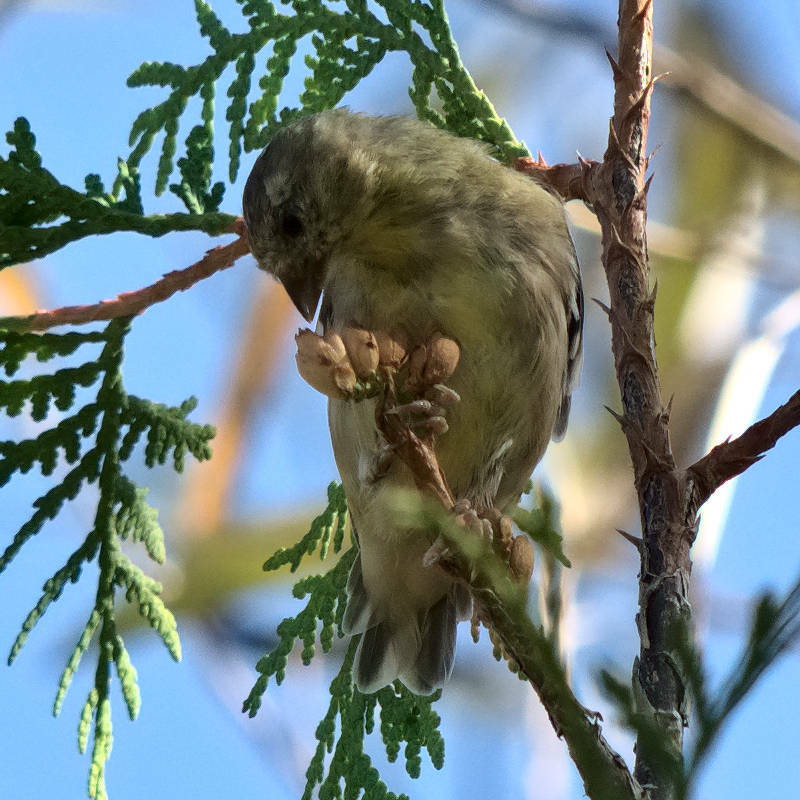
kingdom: Animalia
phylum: Chordata
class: Aves
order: Passeriformes
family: Fringillidae
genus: Spinus
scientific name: Spinus tristis
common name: American goldfinch
